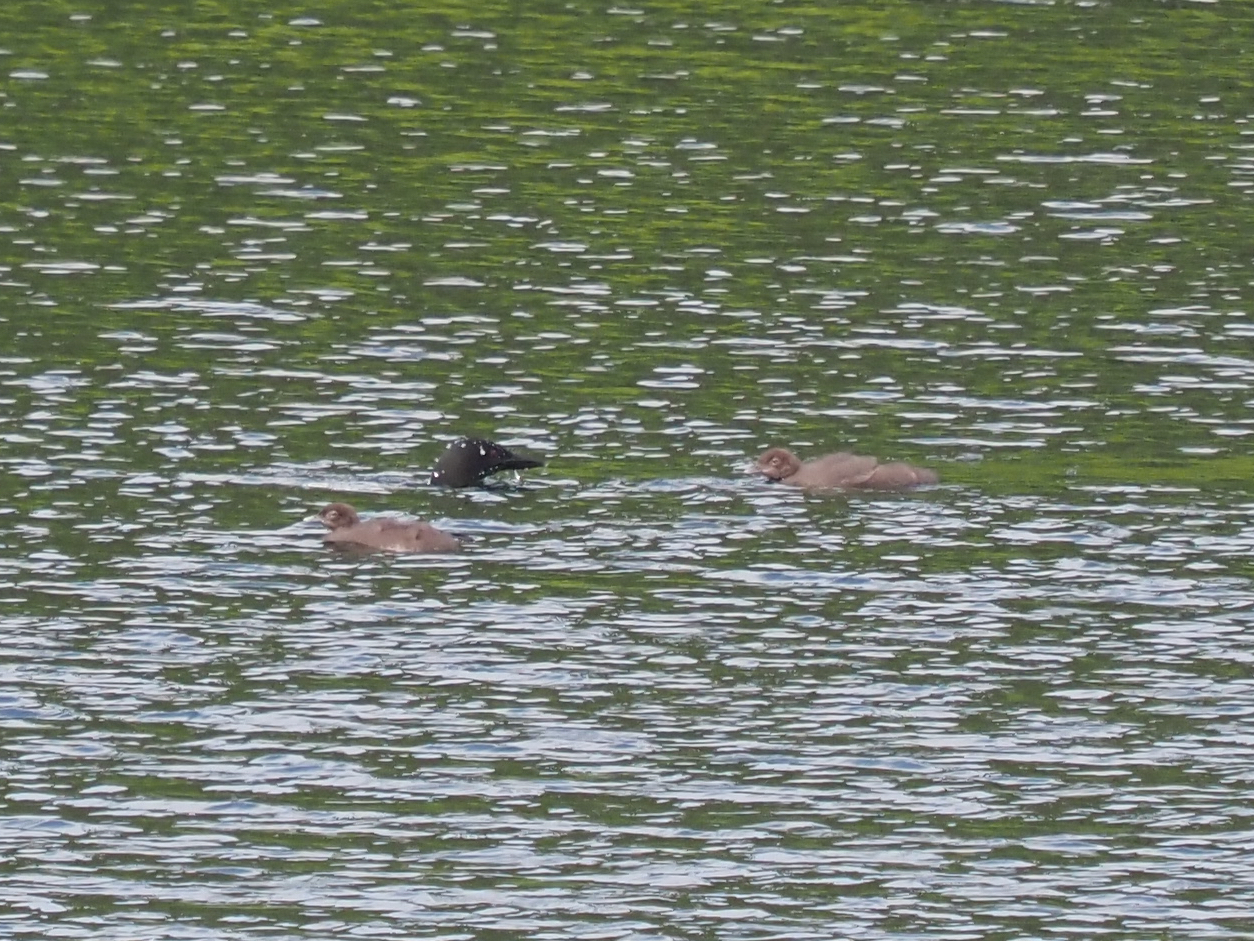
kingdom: Animalia
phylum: Chordata
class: Aves
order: Gaviiformes
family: Gaviidae
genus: Gavia
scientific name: Gavia immer
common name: Common loon
